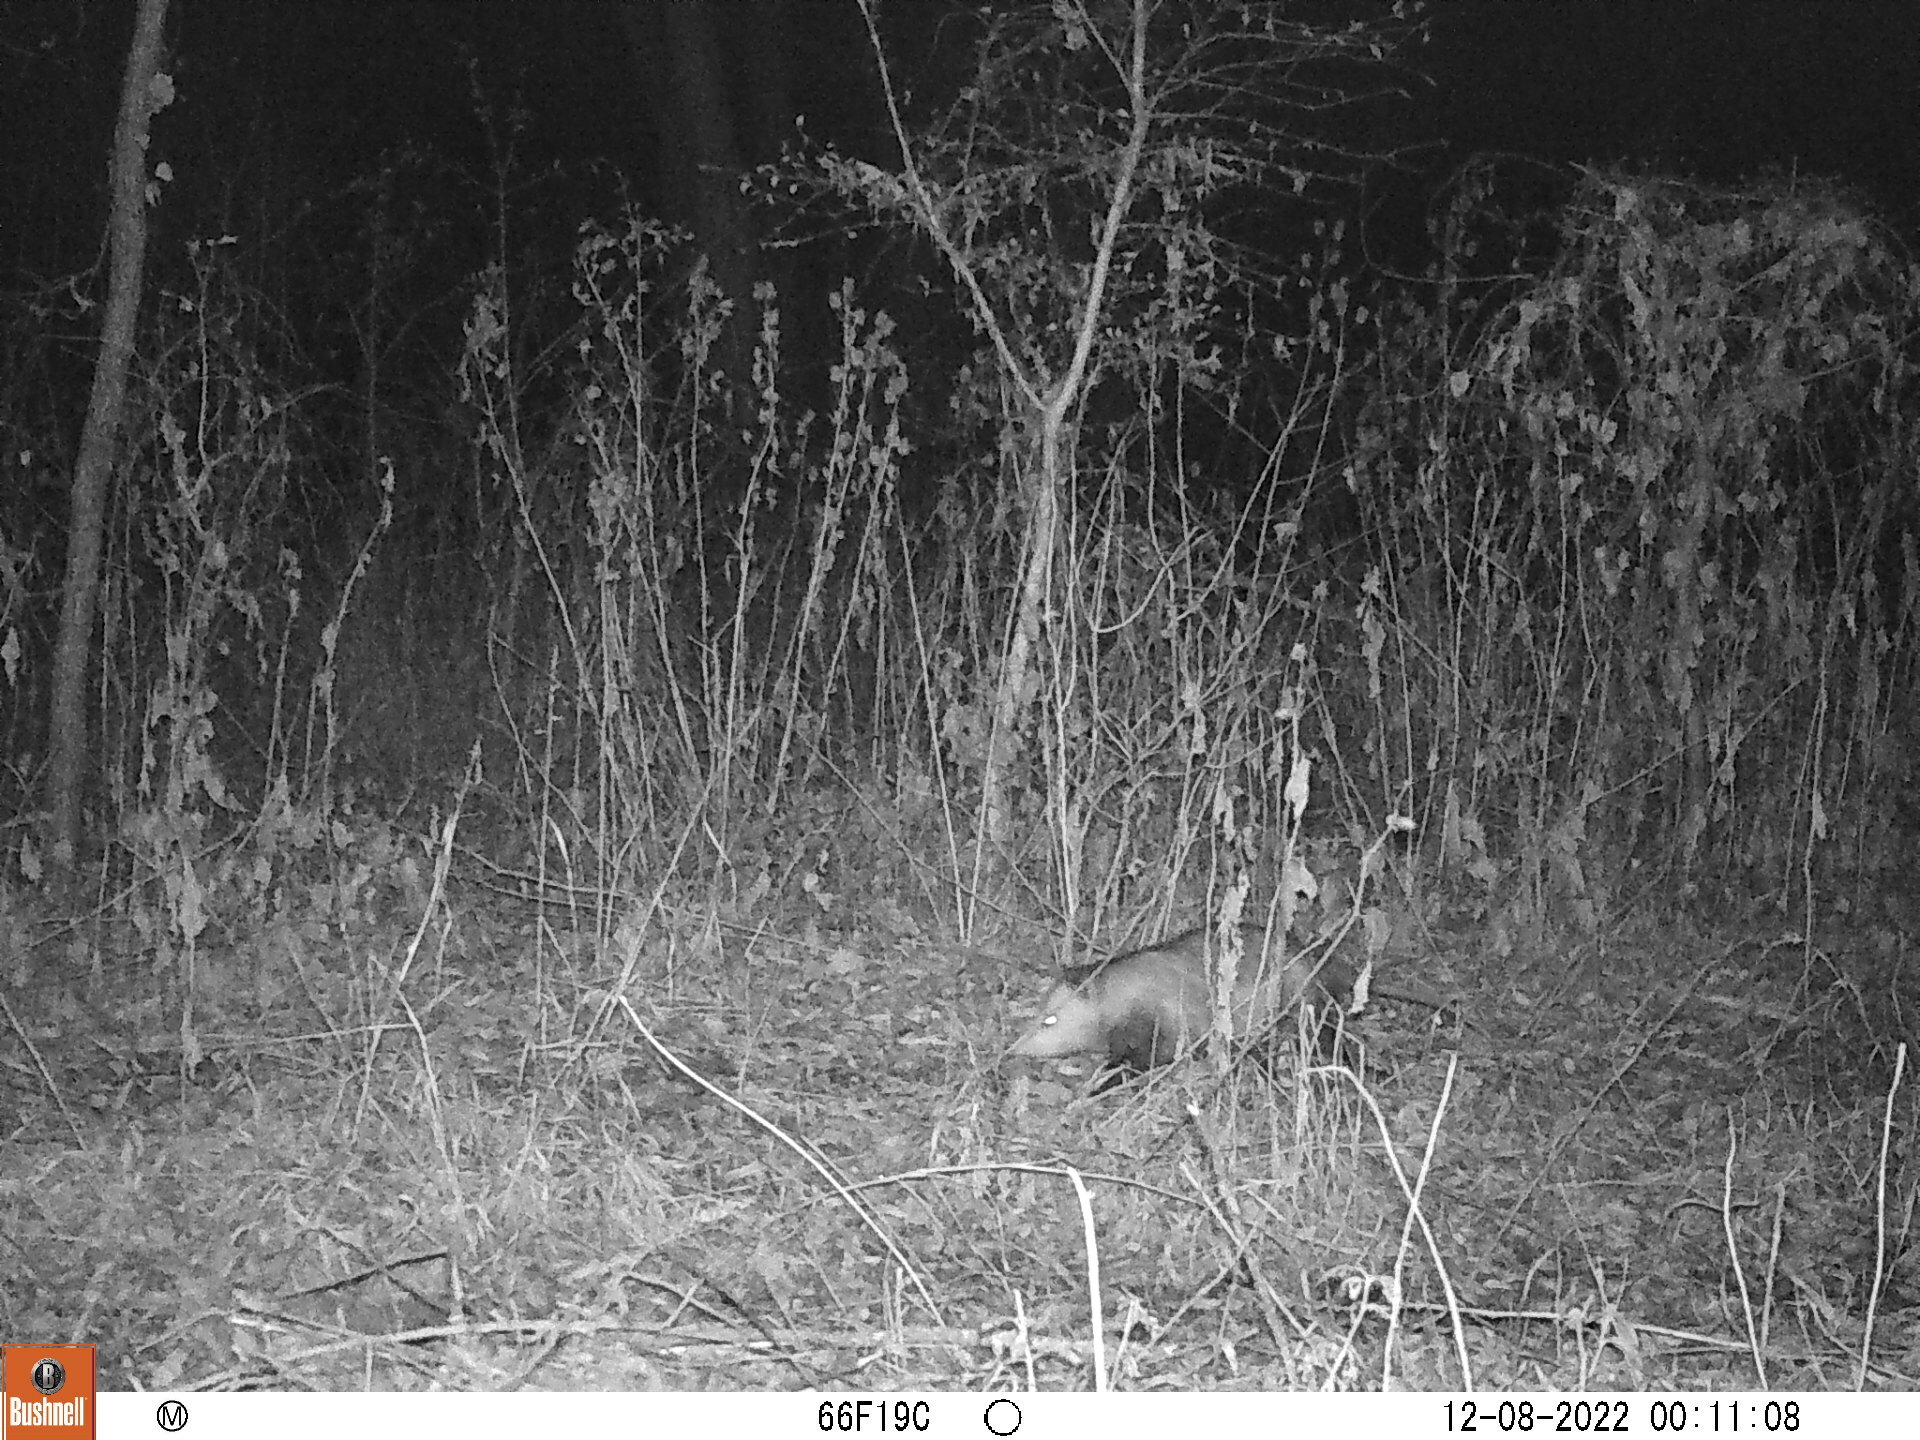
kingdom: Animalia
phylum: Chordata
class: Mammalia
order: Didelphimorphia
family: Didelphidae
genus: Didelphis
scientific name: Didelphis virginiana
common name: Virginia opossum
